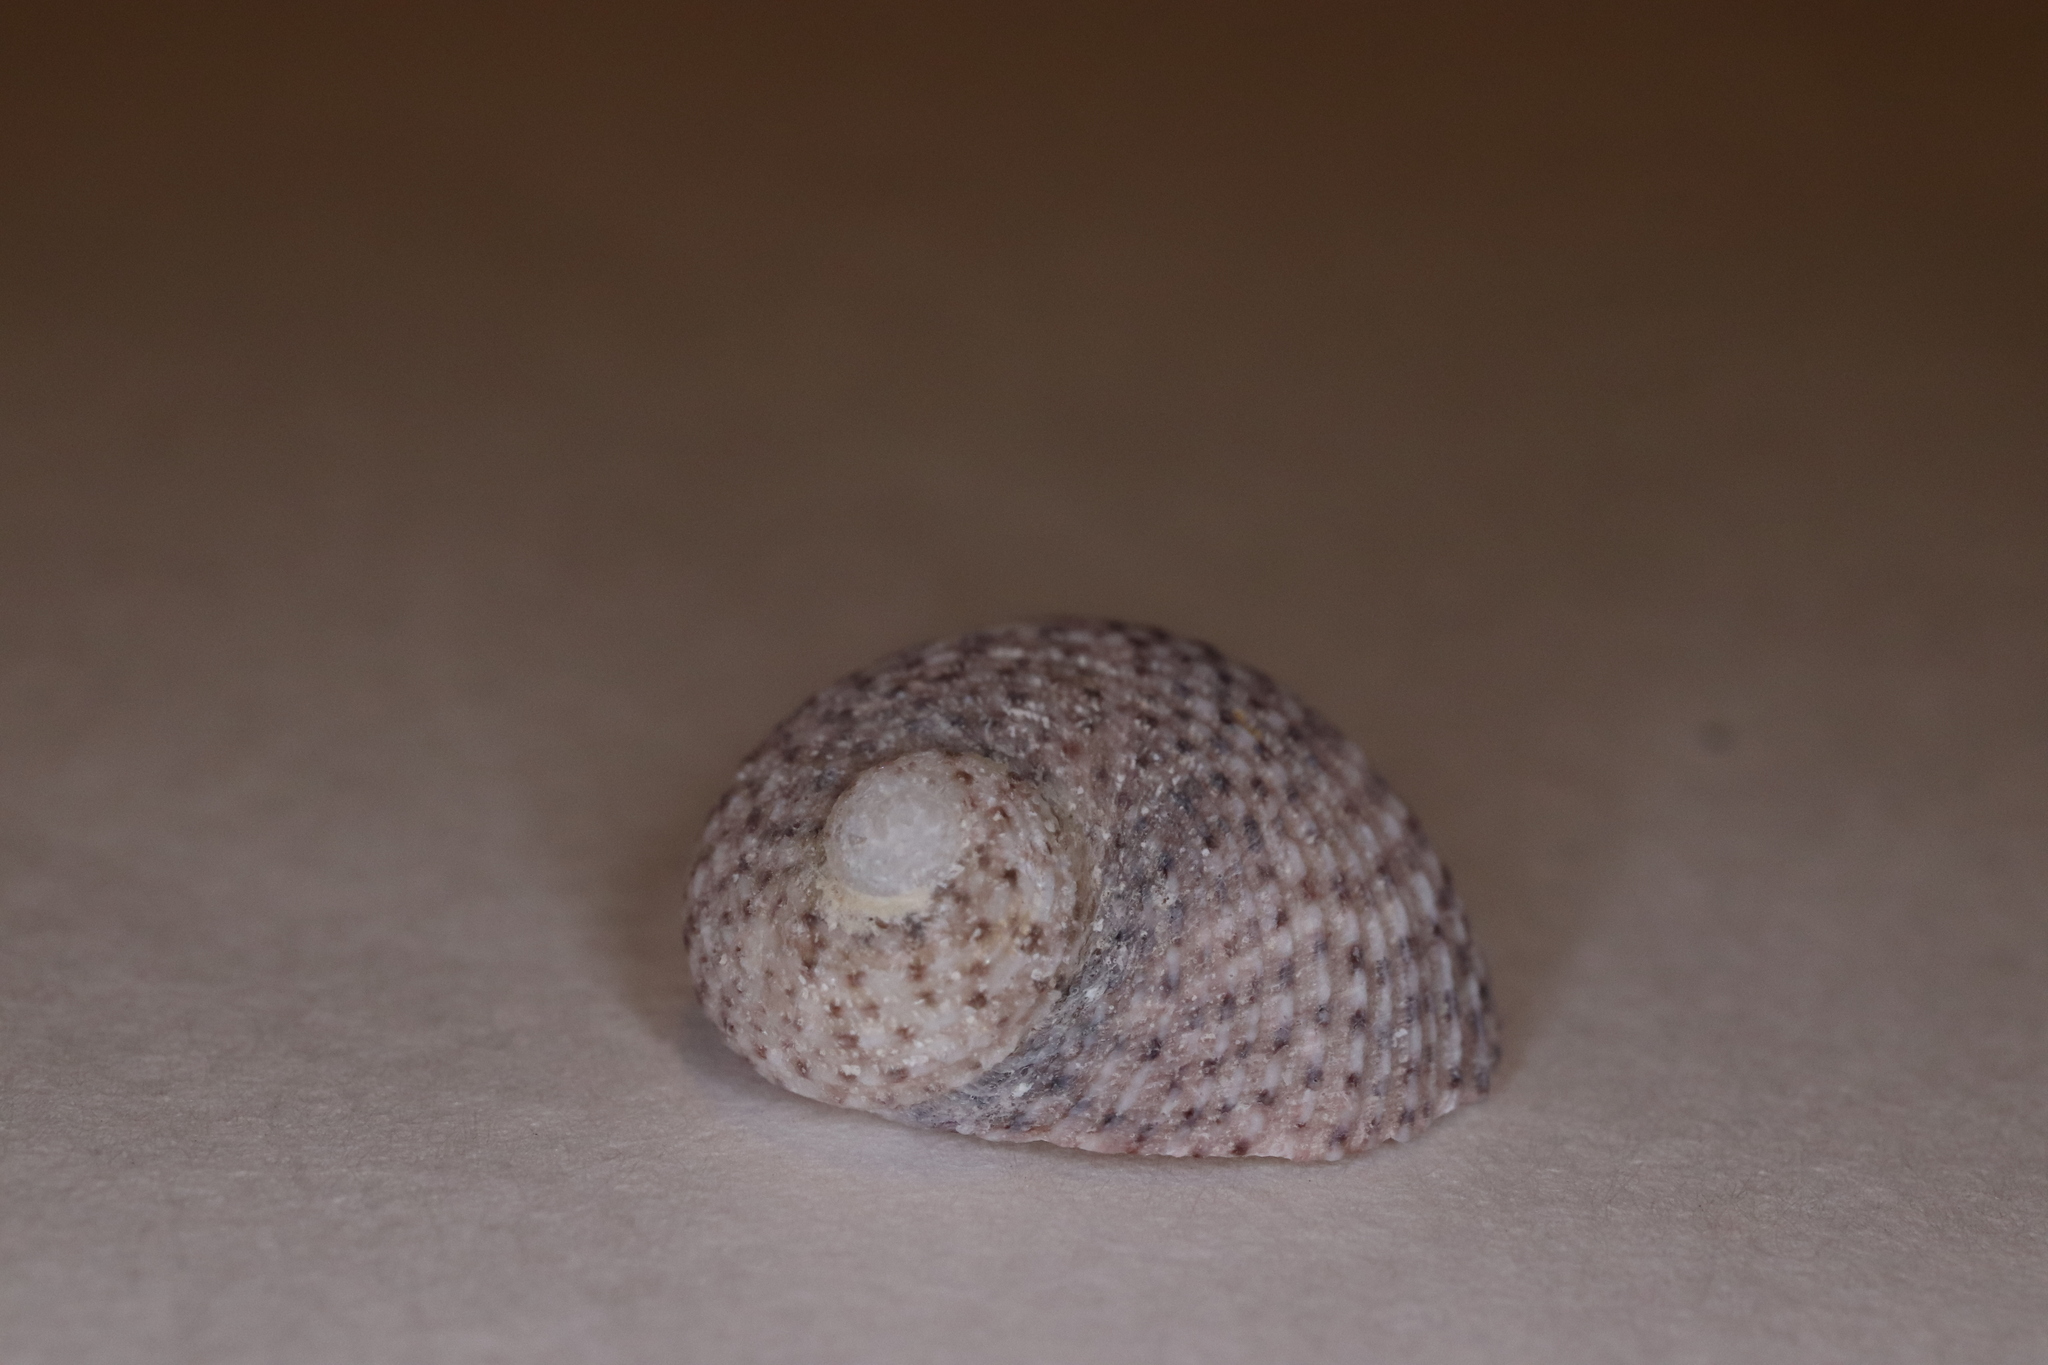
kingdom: Animalia
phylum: Mollusca
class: Gastropoda
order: Seguenziida
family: Chilodontaidae
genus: Granata
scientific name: Granata lyrata
